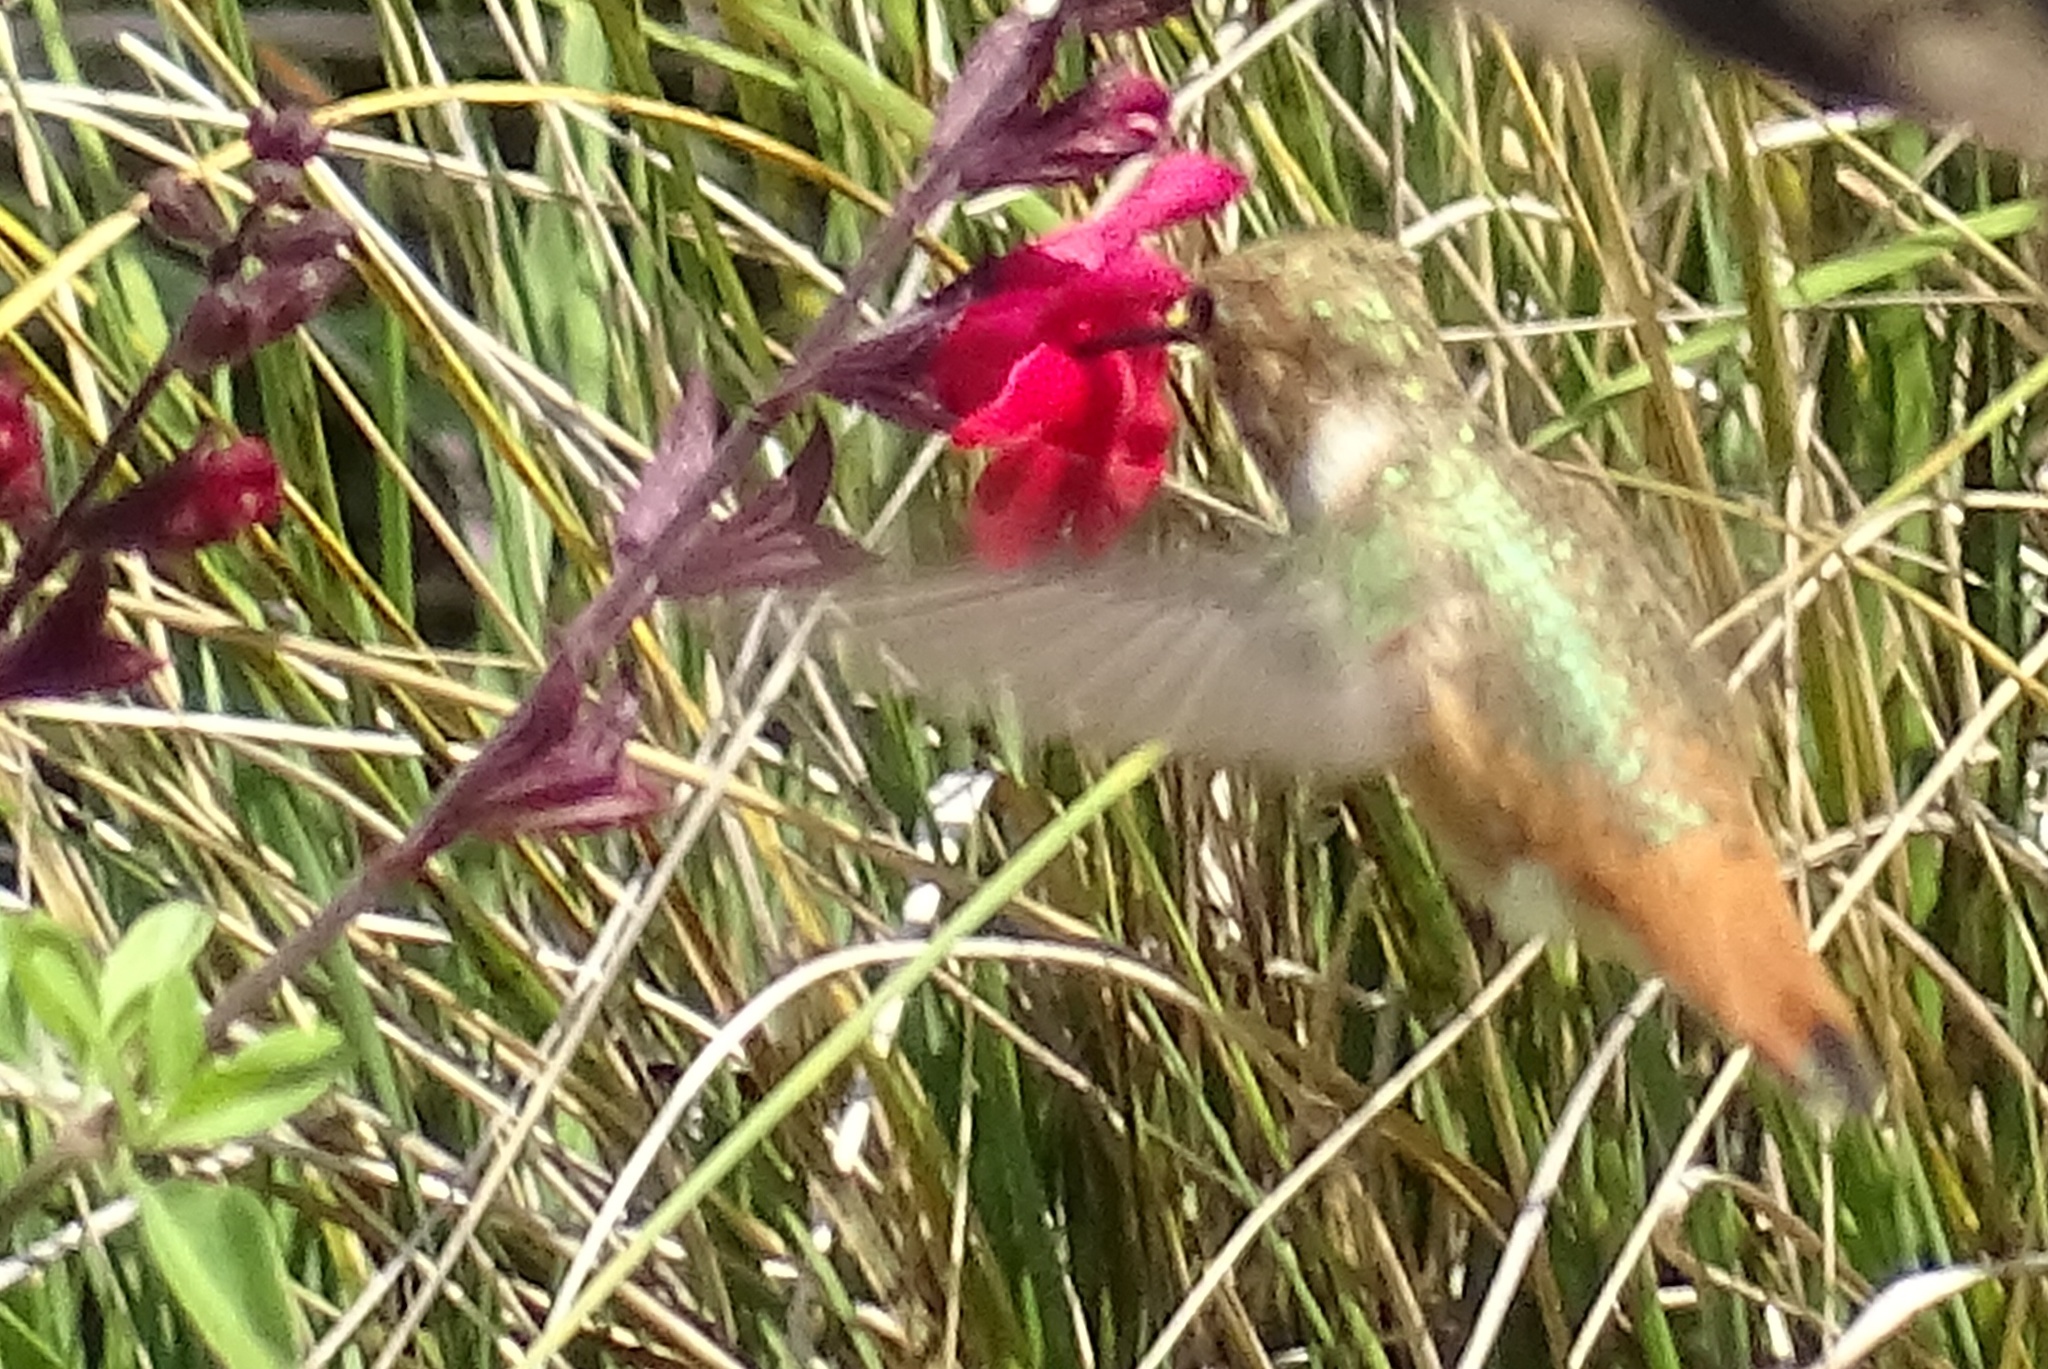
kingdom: Animalia
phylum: Chordata
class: Aves
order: Apodiformes
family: Trochilidae
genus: Selasphorus
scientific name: Selasphorus sasin
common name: Allen's hummingbird
